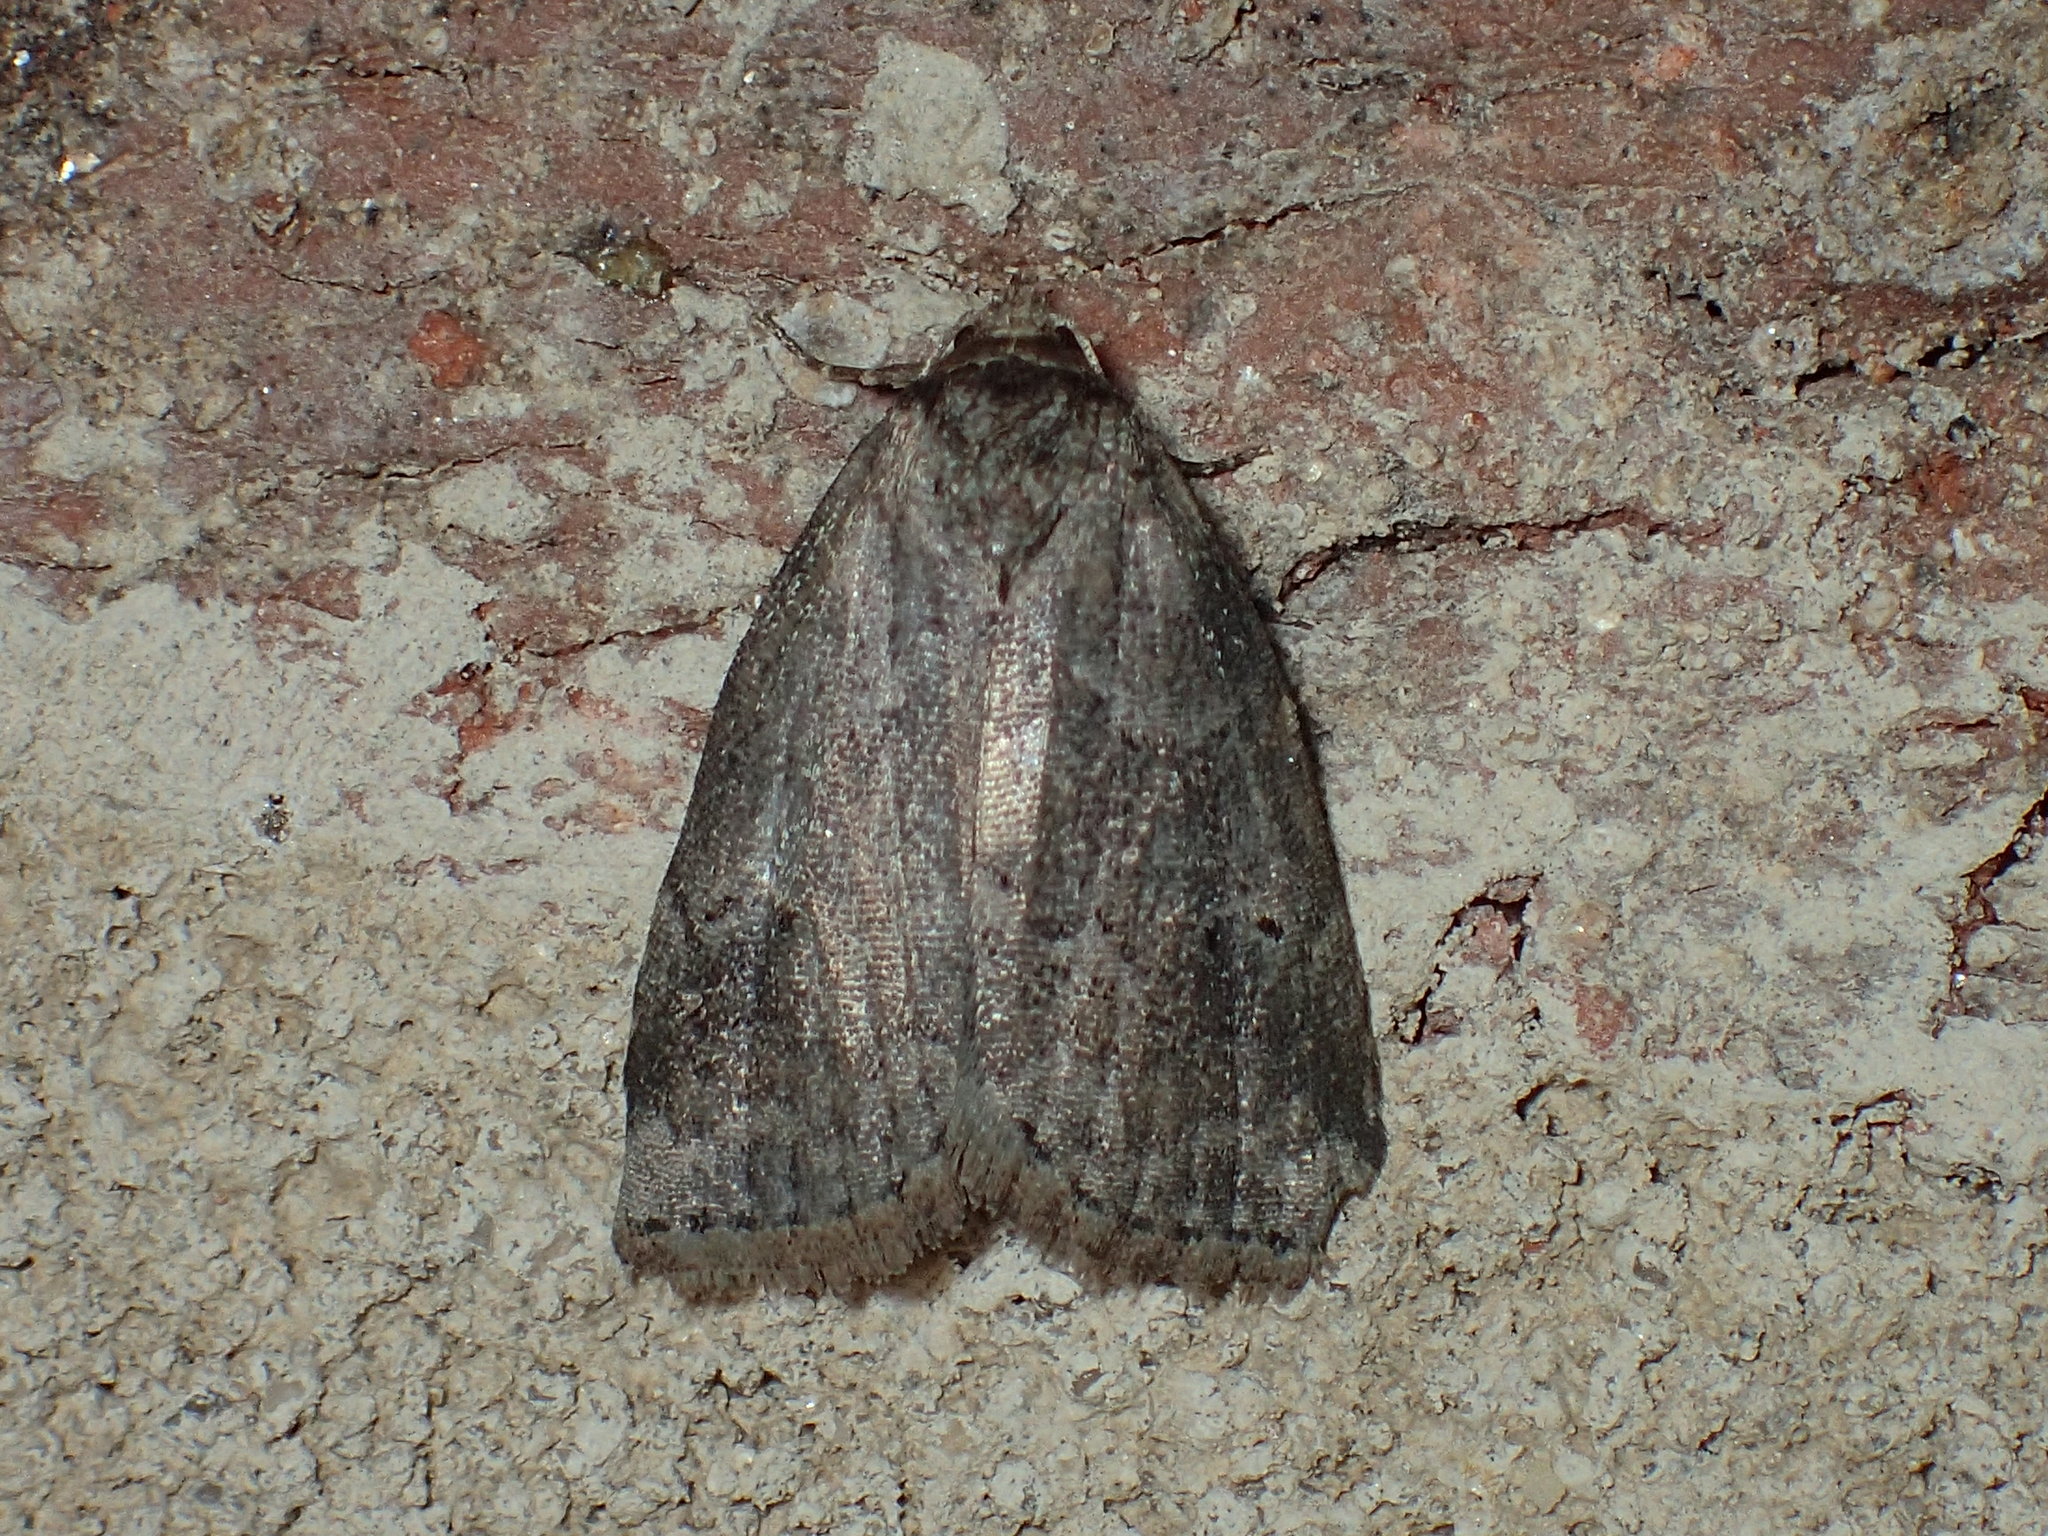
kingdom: Animalia
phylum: Arthropoda
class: Insecta
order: Lepidoptera
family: Erebidae
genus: Hyperstrotia
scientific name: Hyperstrotia nana
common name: White-lined graylet
